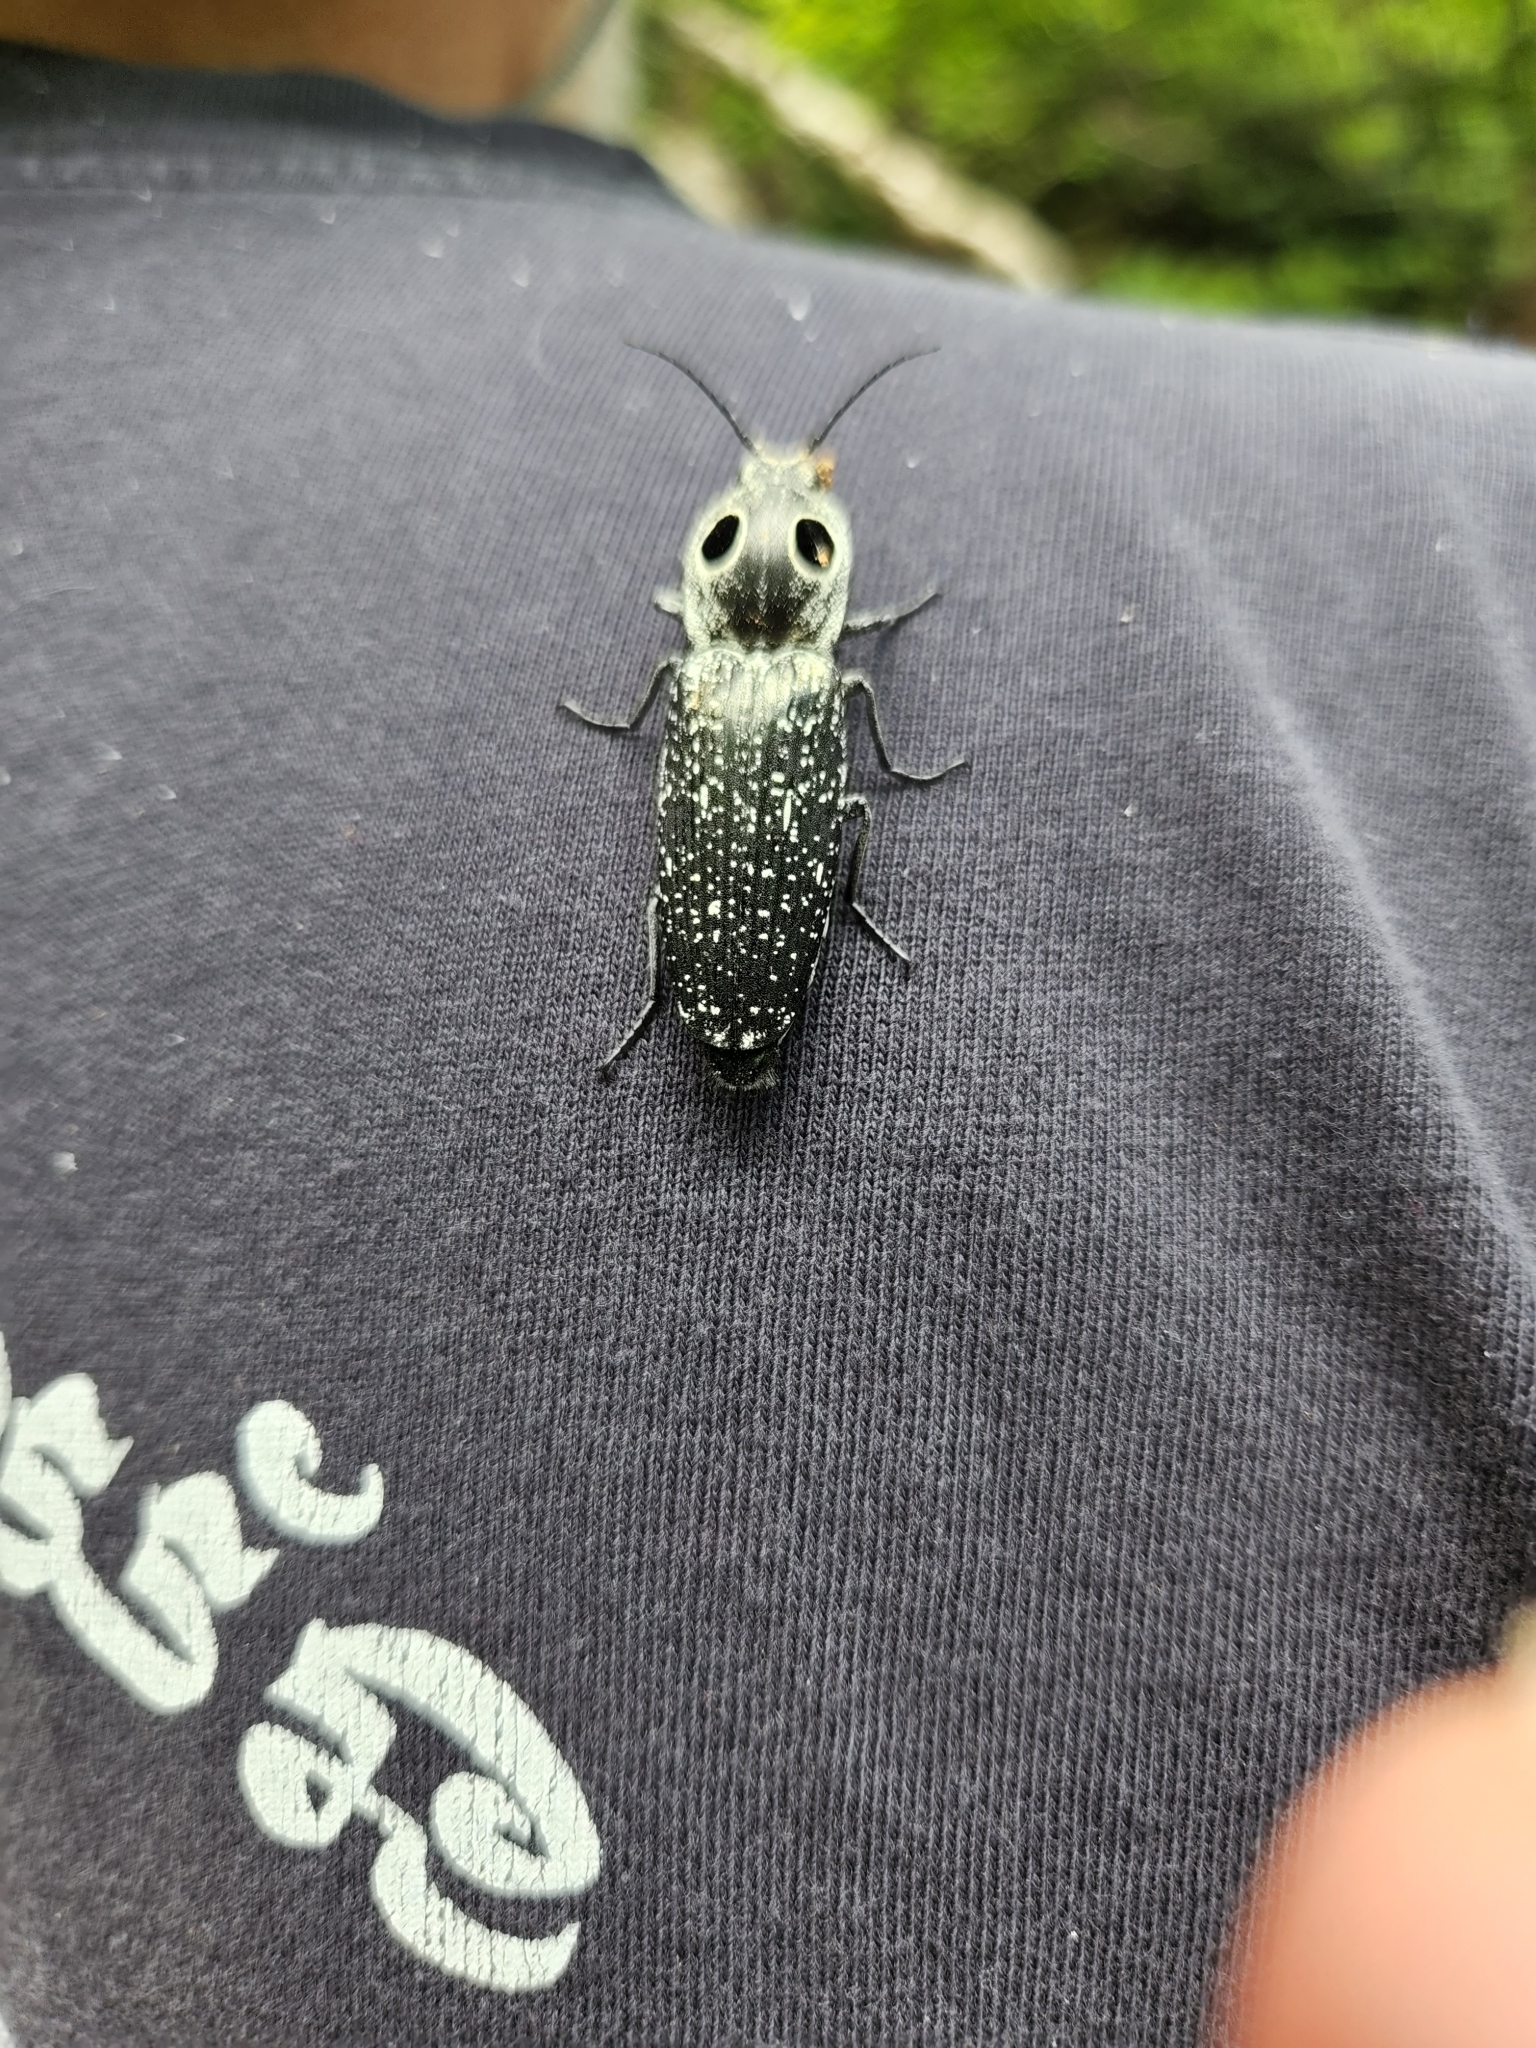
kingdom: Animalia
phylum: Arthropoda
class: Insecta
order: Coleoptera
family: Elateridae
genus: Alaus
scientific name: Alaus oculatus
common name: Eastern eyed click beetle
